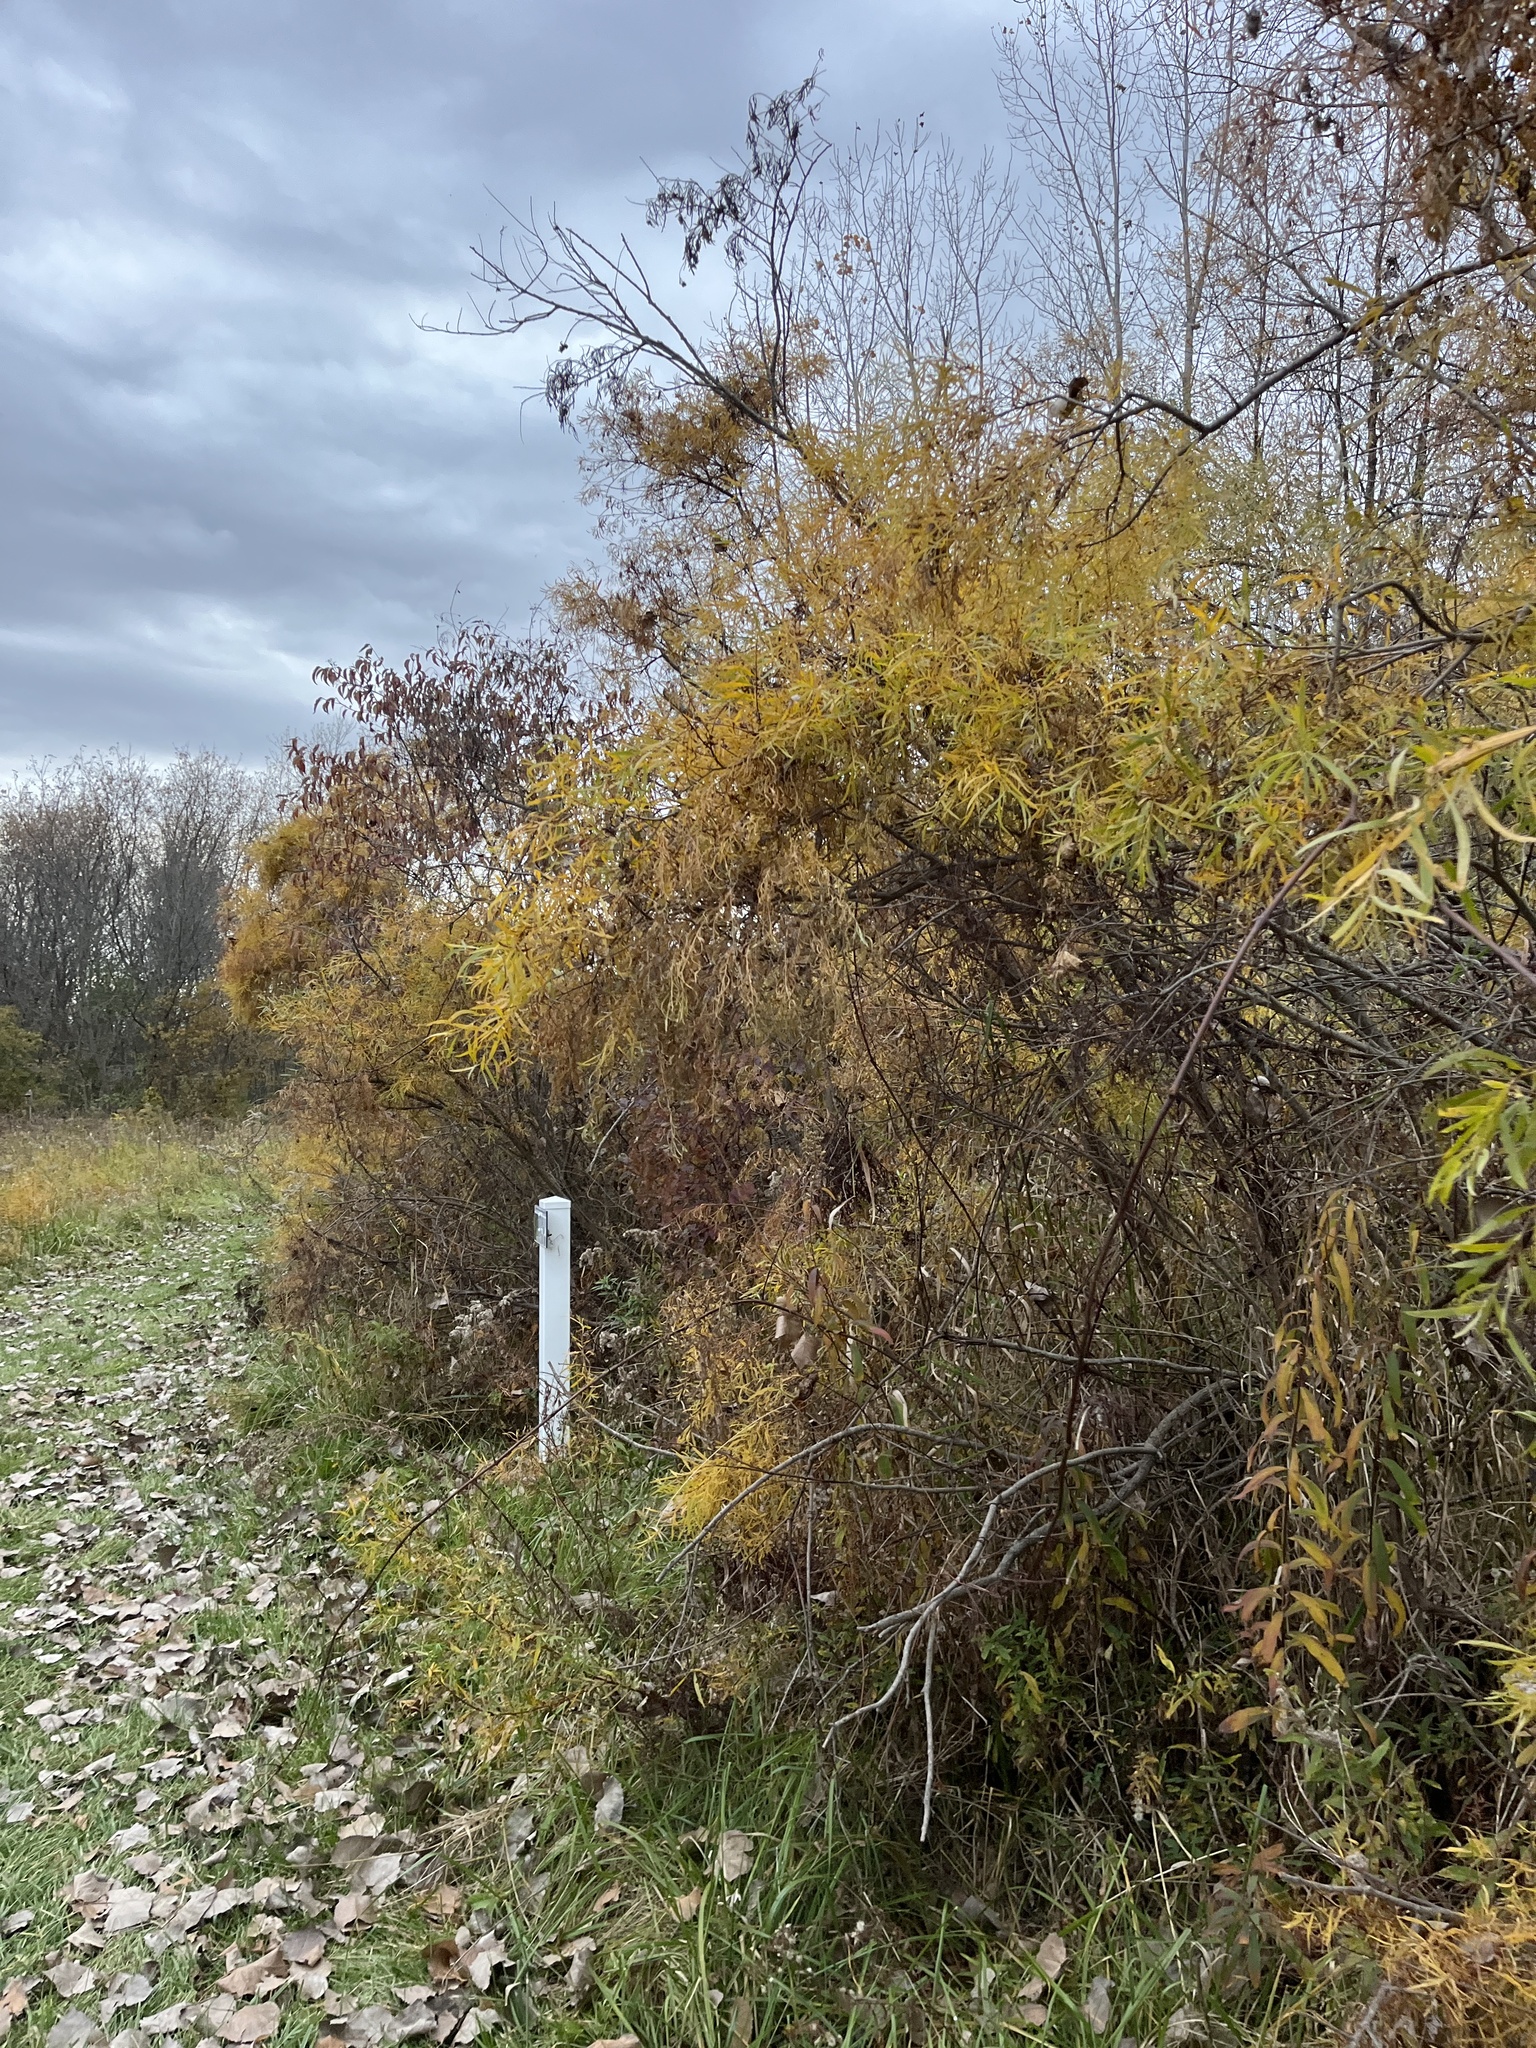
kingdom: Plantae
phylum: Tracheophyta
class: Magnoliopsida
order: Malpighiales
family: Salicaceae
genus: Salix
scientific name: Salix interior
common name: Sandbar willow
